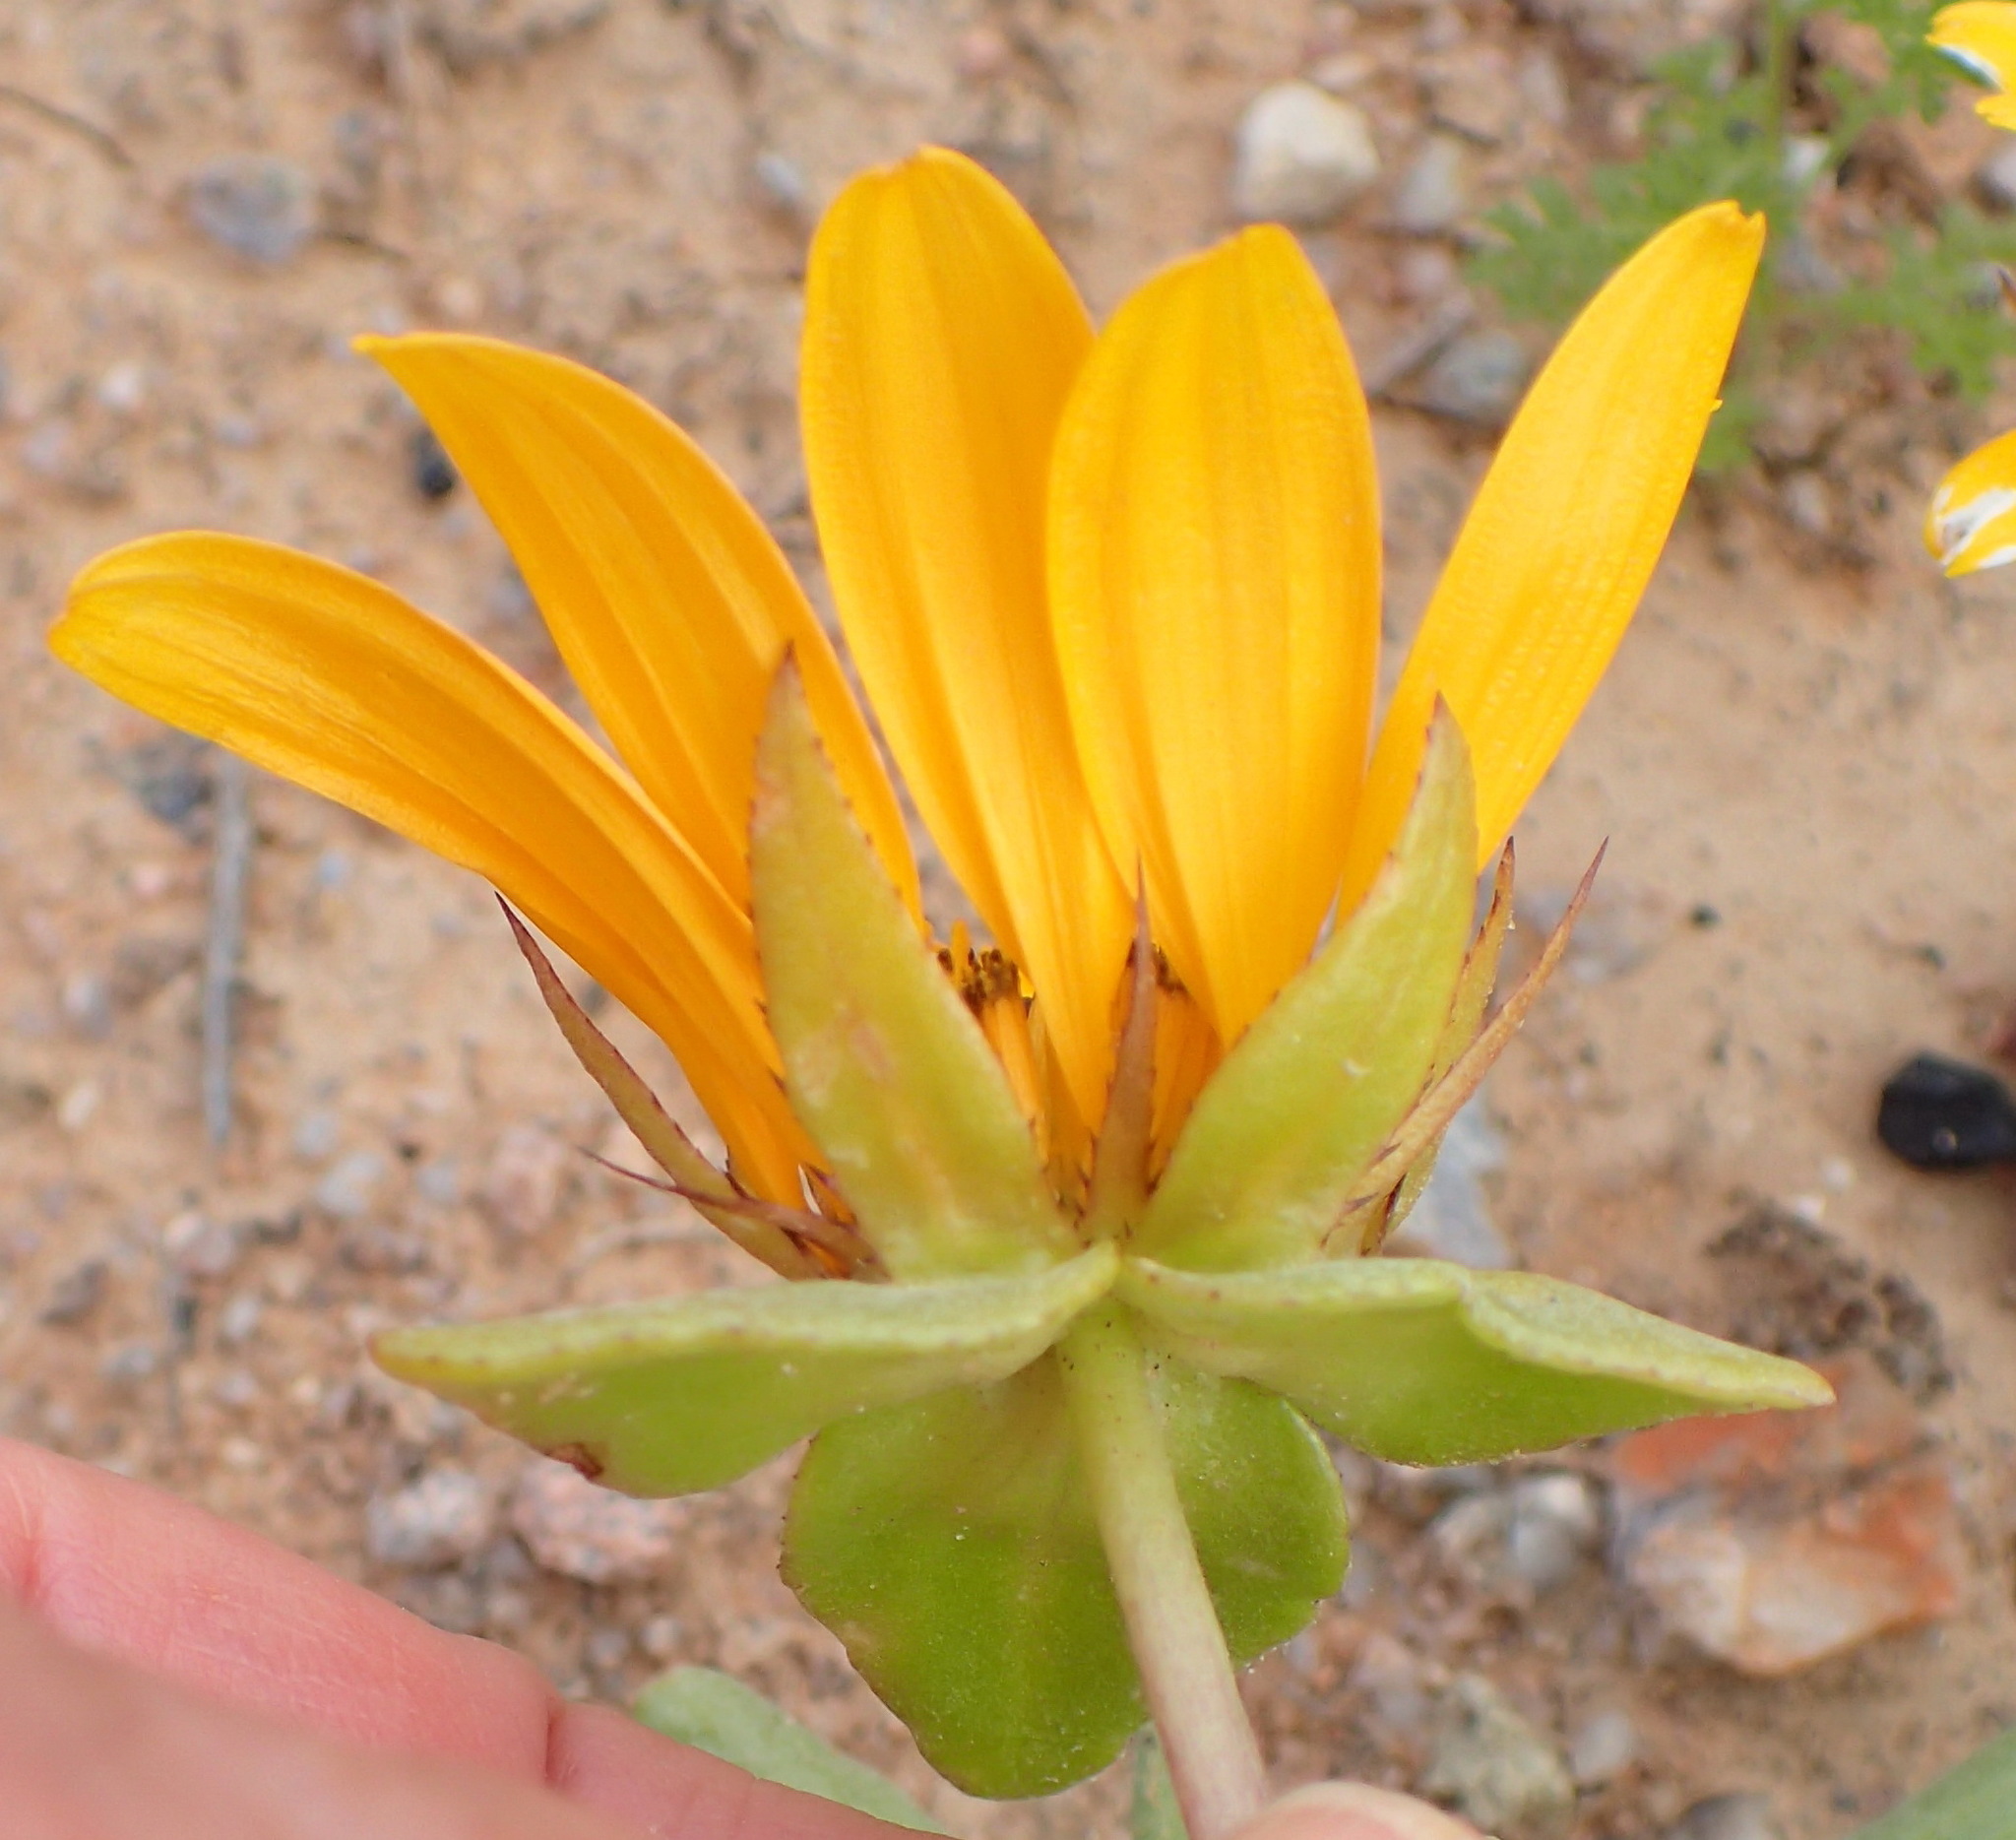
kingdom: Plantae
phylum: Tracheophyta
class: Magnoliopsida
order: Asterales
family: Asteraceae
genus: Didelta
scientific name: Didelta carnosa
